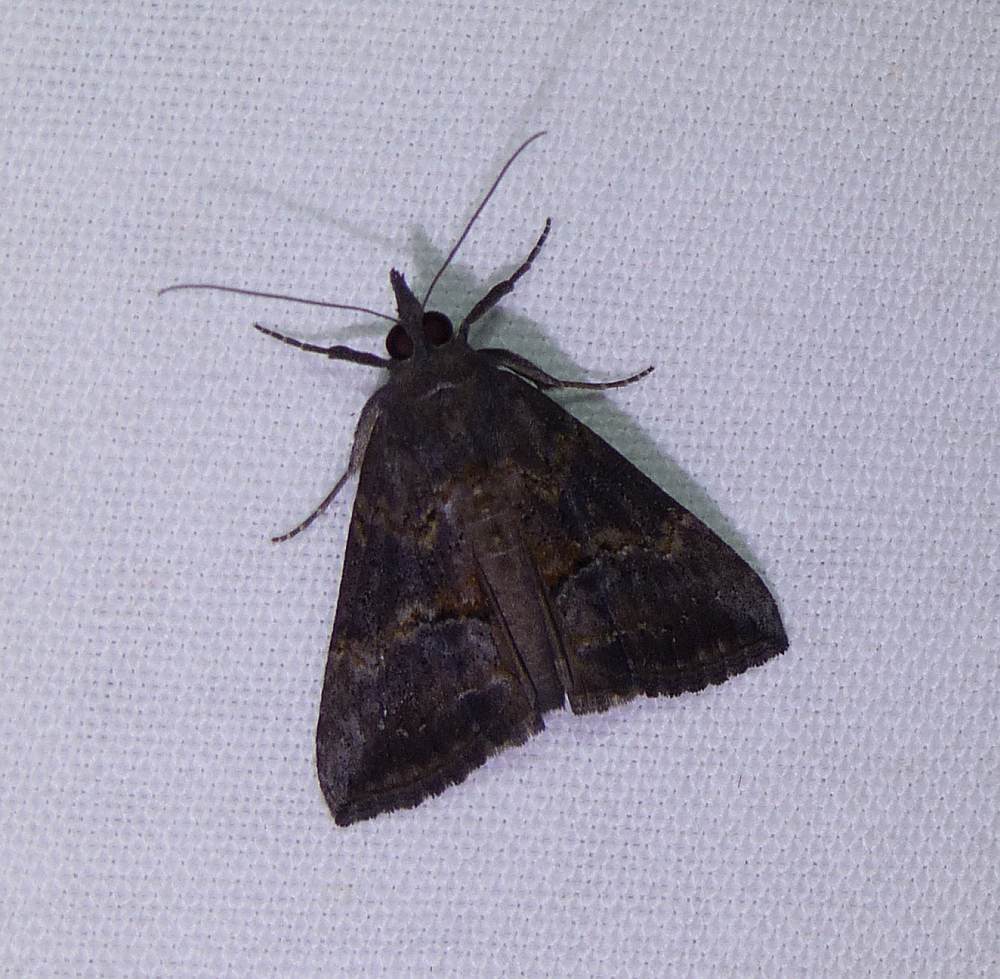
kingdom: Animalia
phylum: Arthropoda
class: Insecta
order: Lepidoptera
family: Erebidae
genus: Hypena
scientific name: Hypena scabra
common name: Green cloverworm
